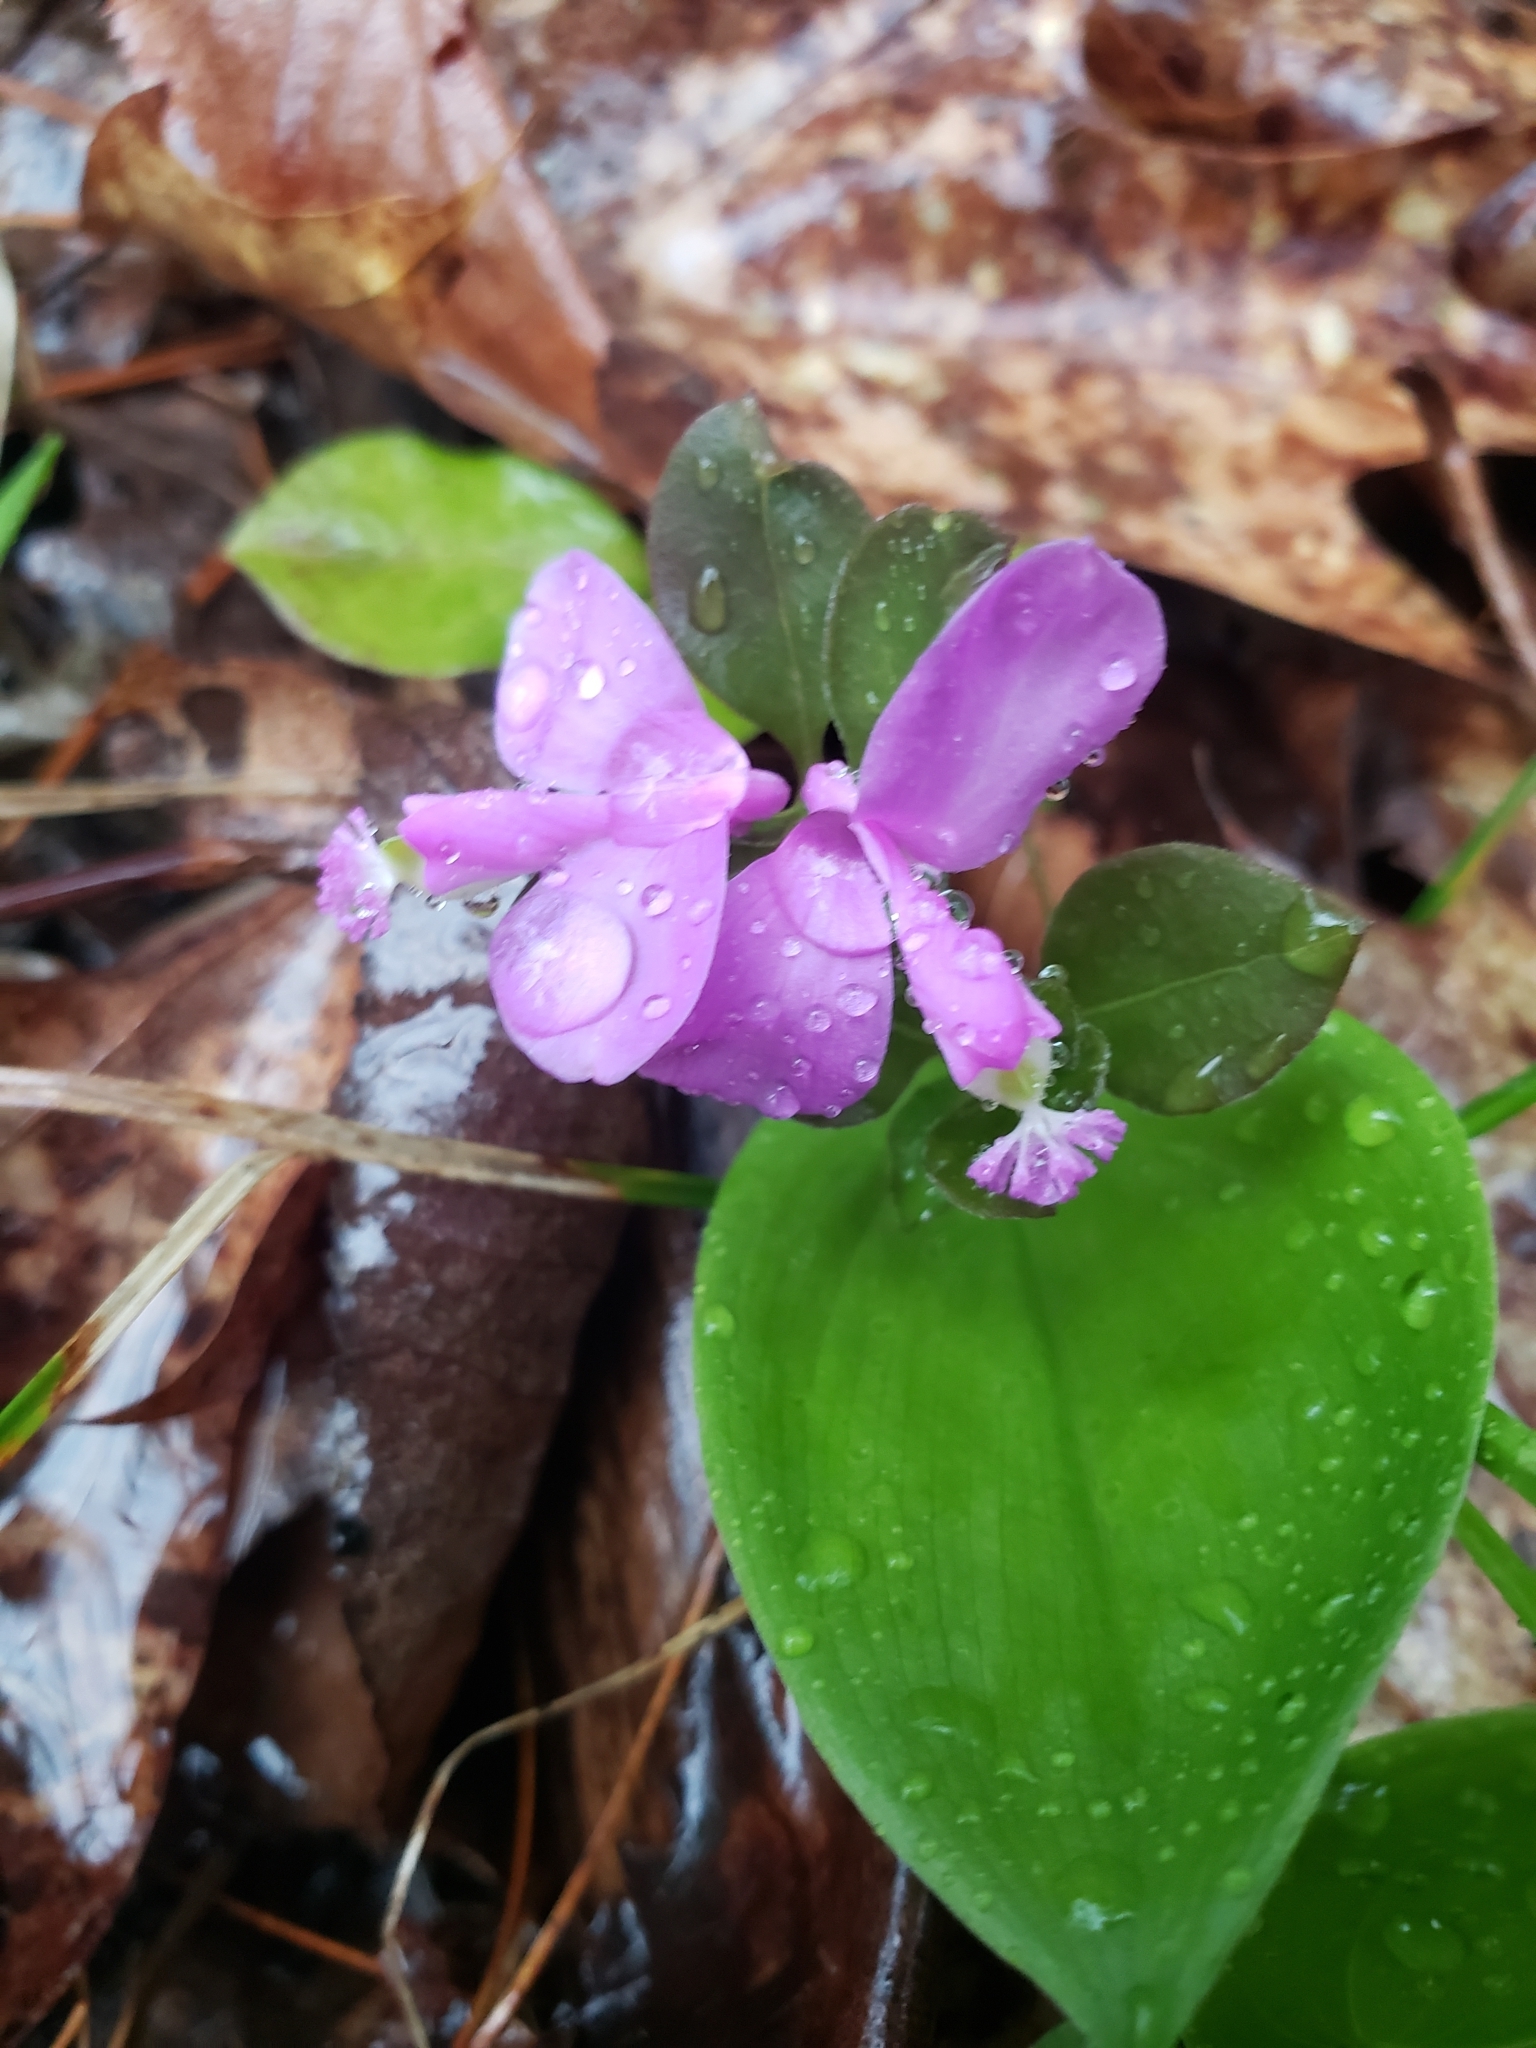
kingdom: Plantae
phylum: Tracheophyta
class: Magnoliopsida
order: Fabales
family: Polygalaceae
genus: Polygaloides
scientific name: Polygaloides paucifolia
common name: Bird-on-the-wing
